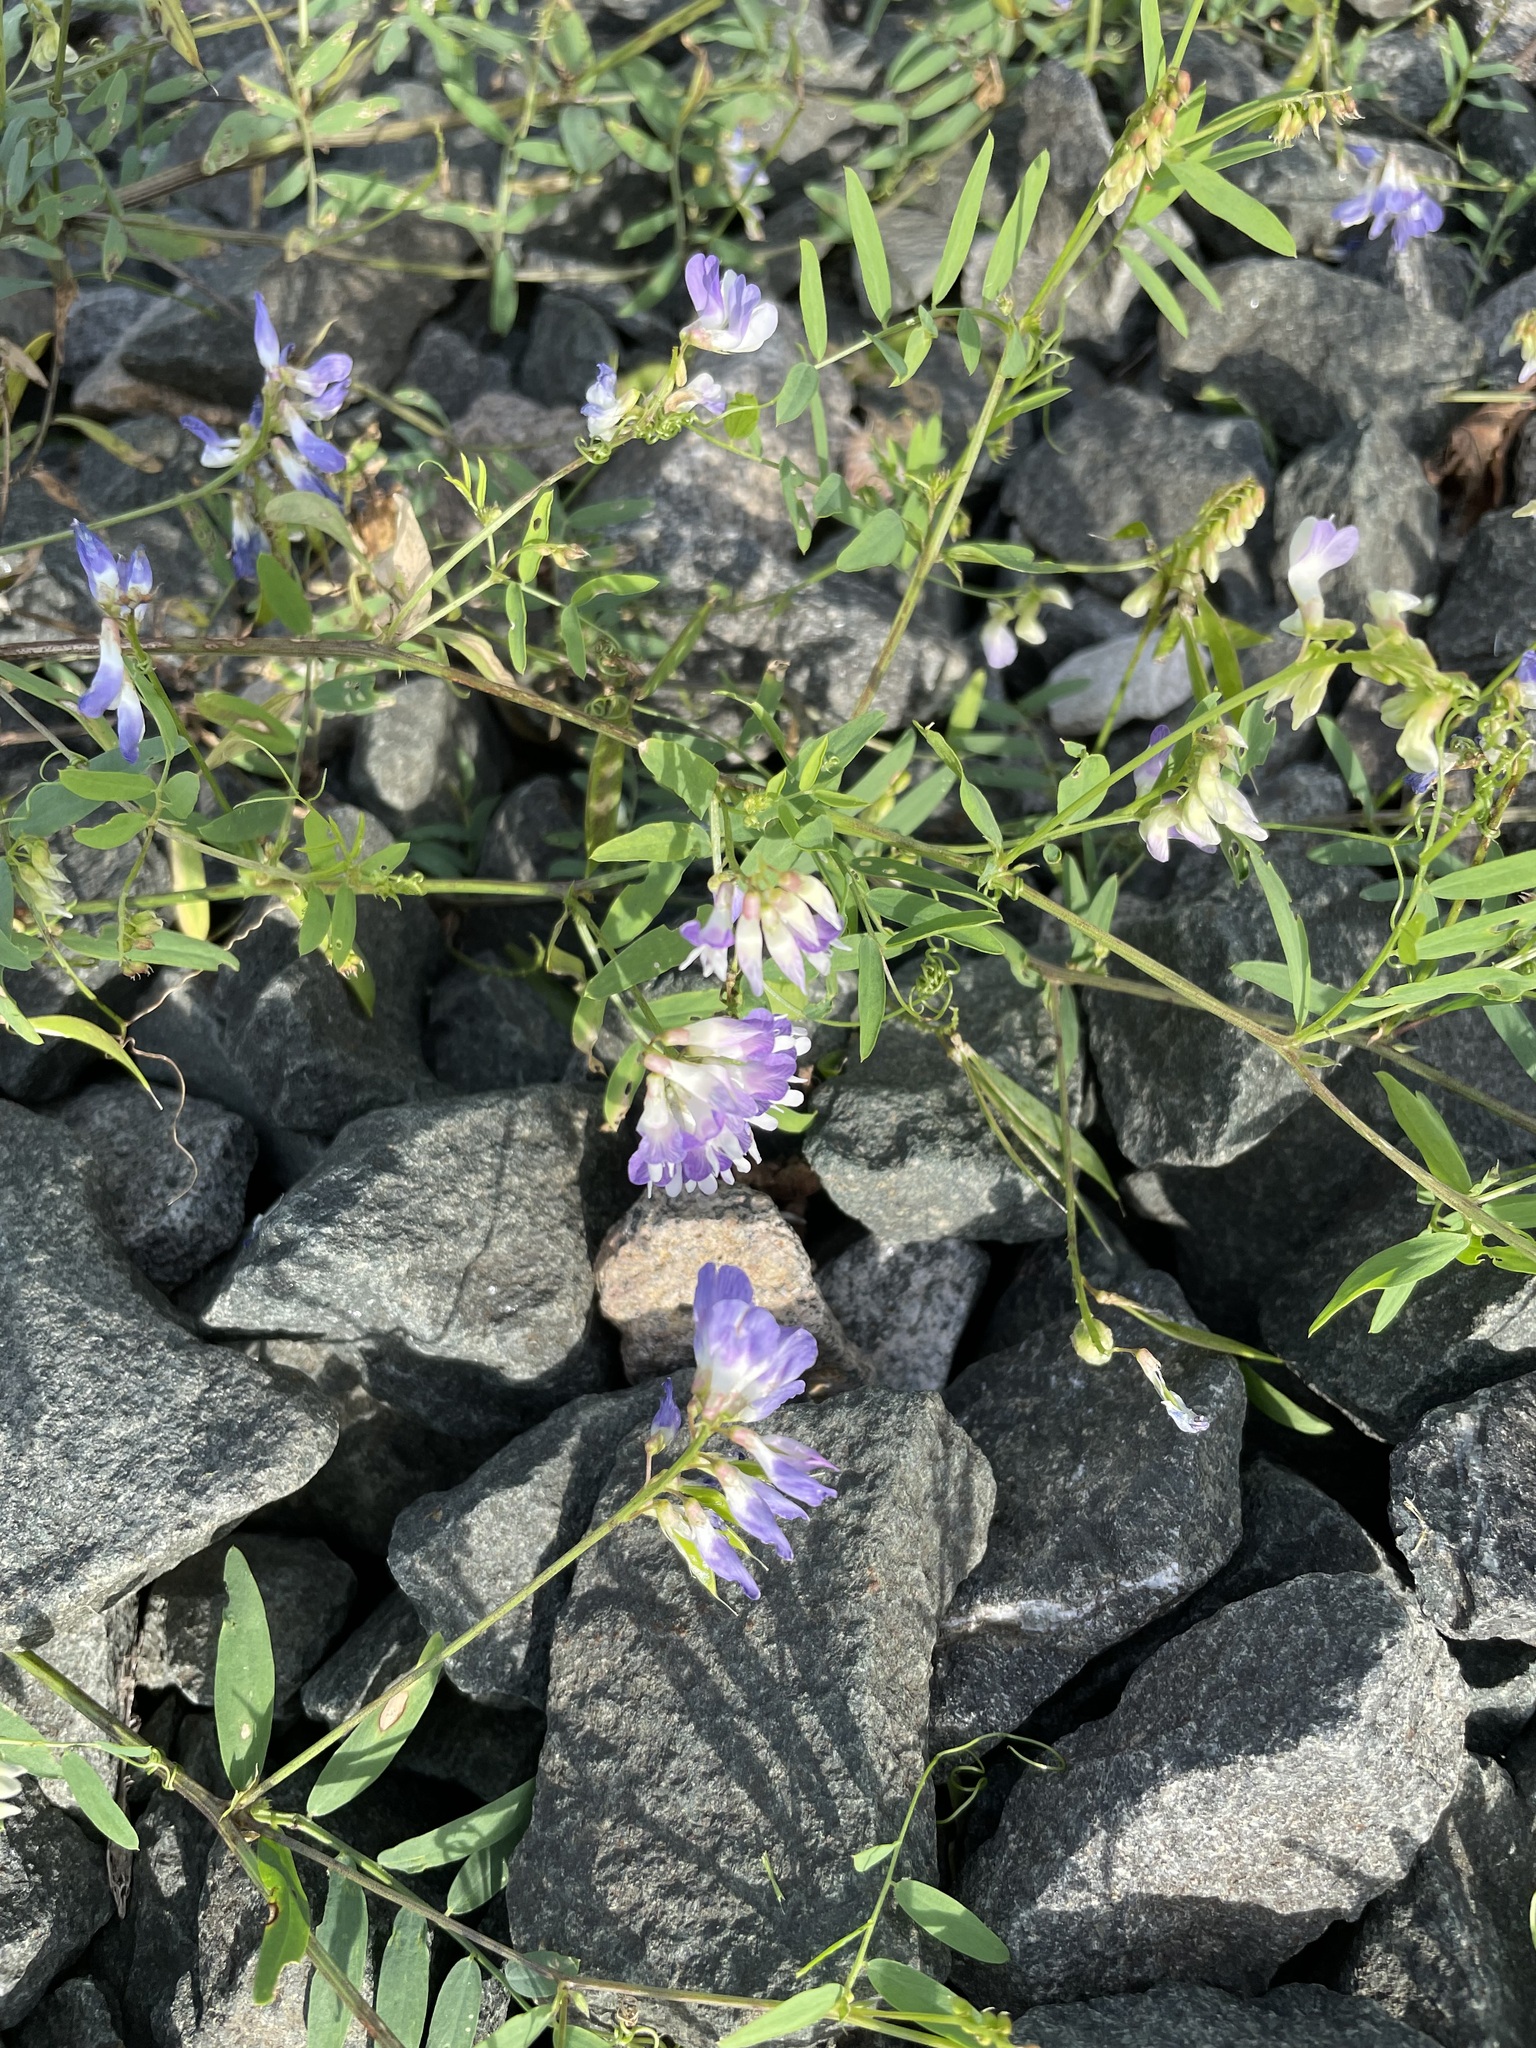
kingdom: Plantae
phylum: Tracheophyta
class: Magnoliopsida
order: Fabales
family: Fabaceae
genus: Vicia
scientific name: Vicia biennis
